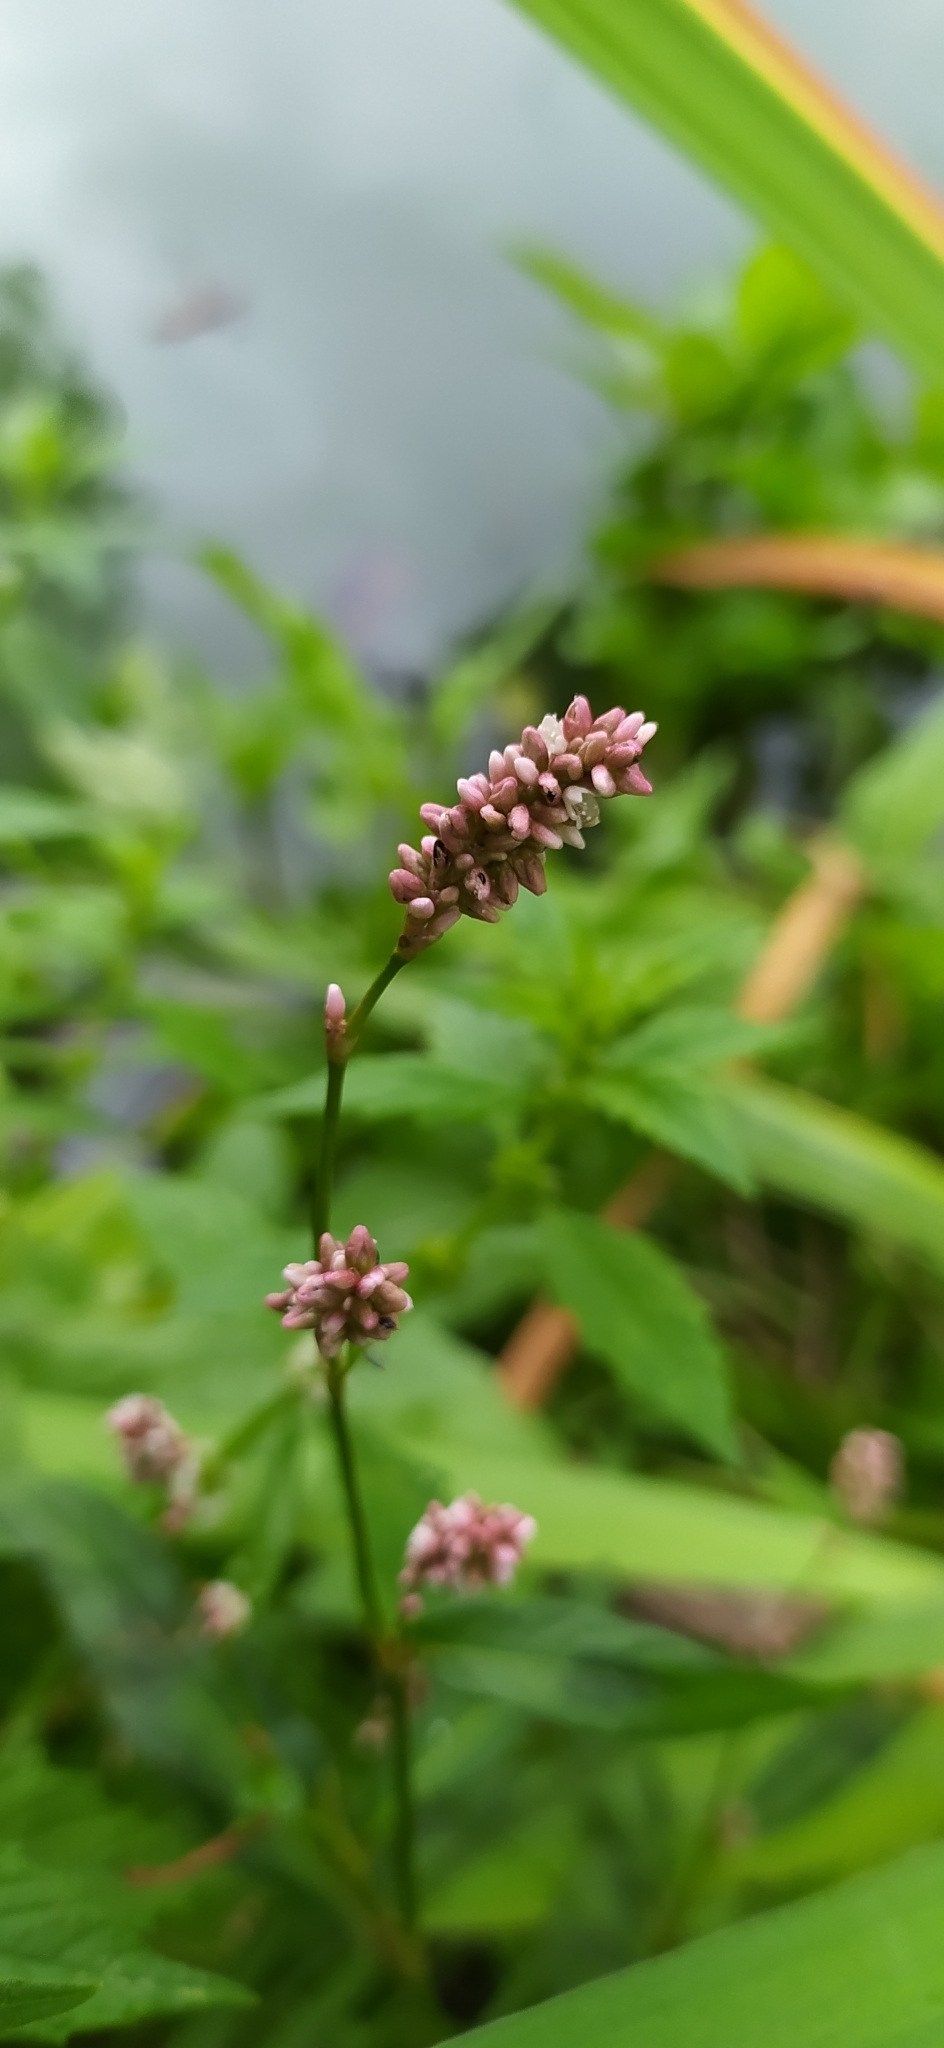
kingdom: Plantae
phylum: Tracheophyta
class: Magnoliopsida
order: Caryophyllales
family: Polygonaceae
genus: Persicaria
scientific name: Persicaria maculosa
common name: Redshank
